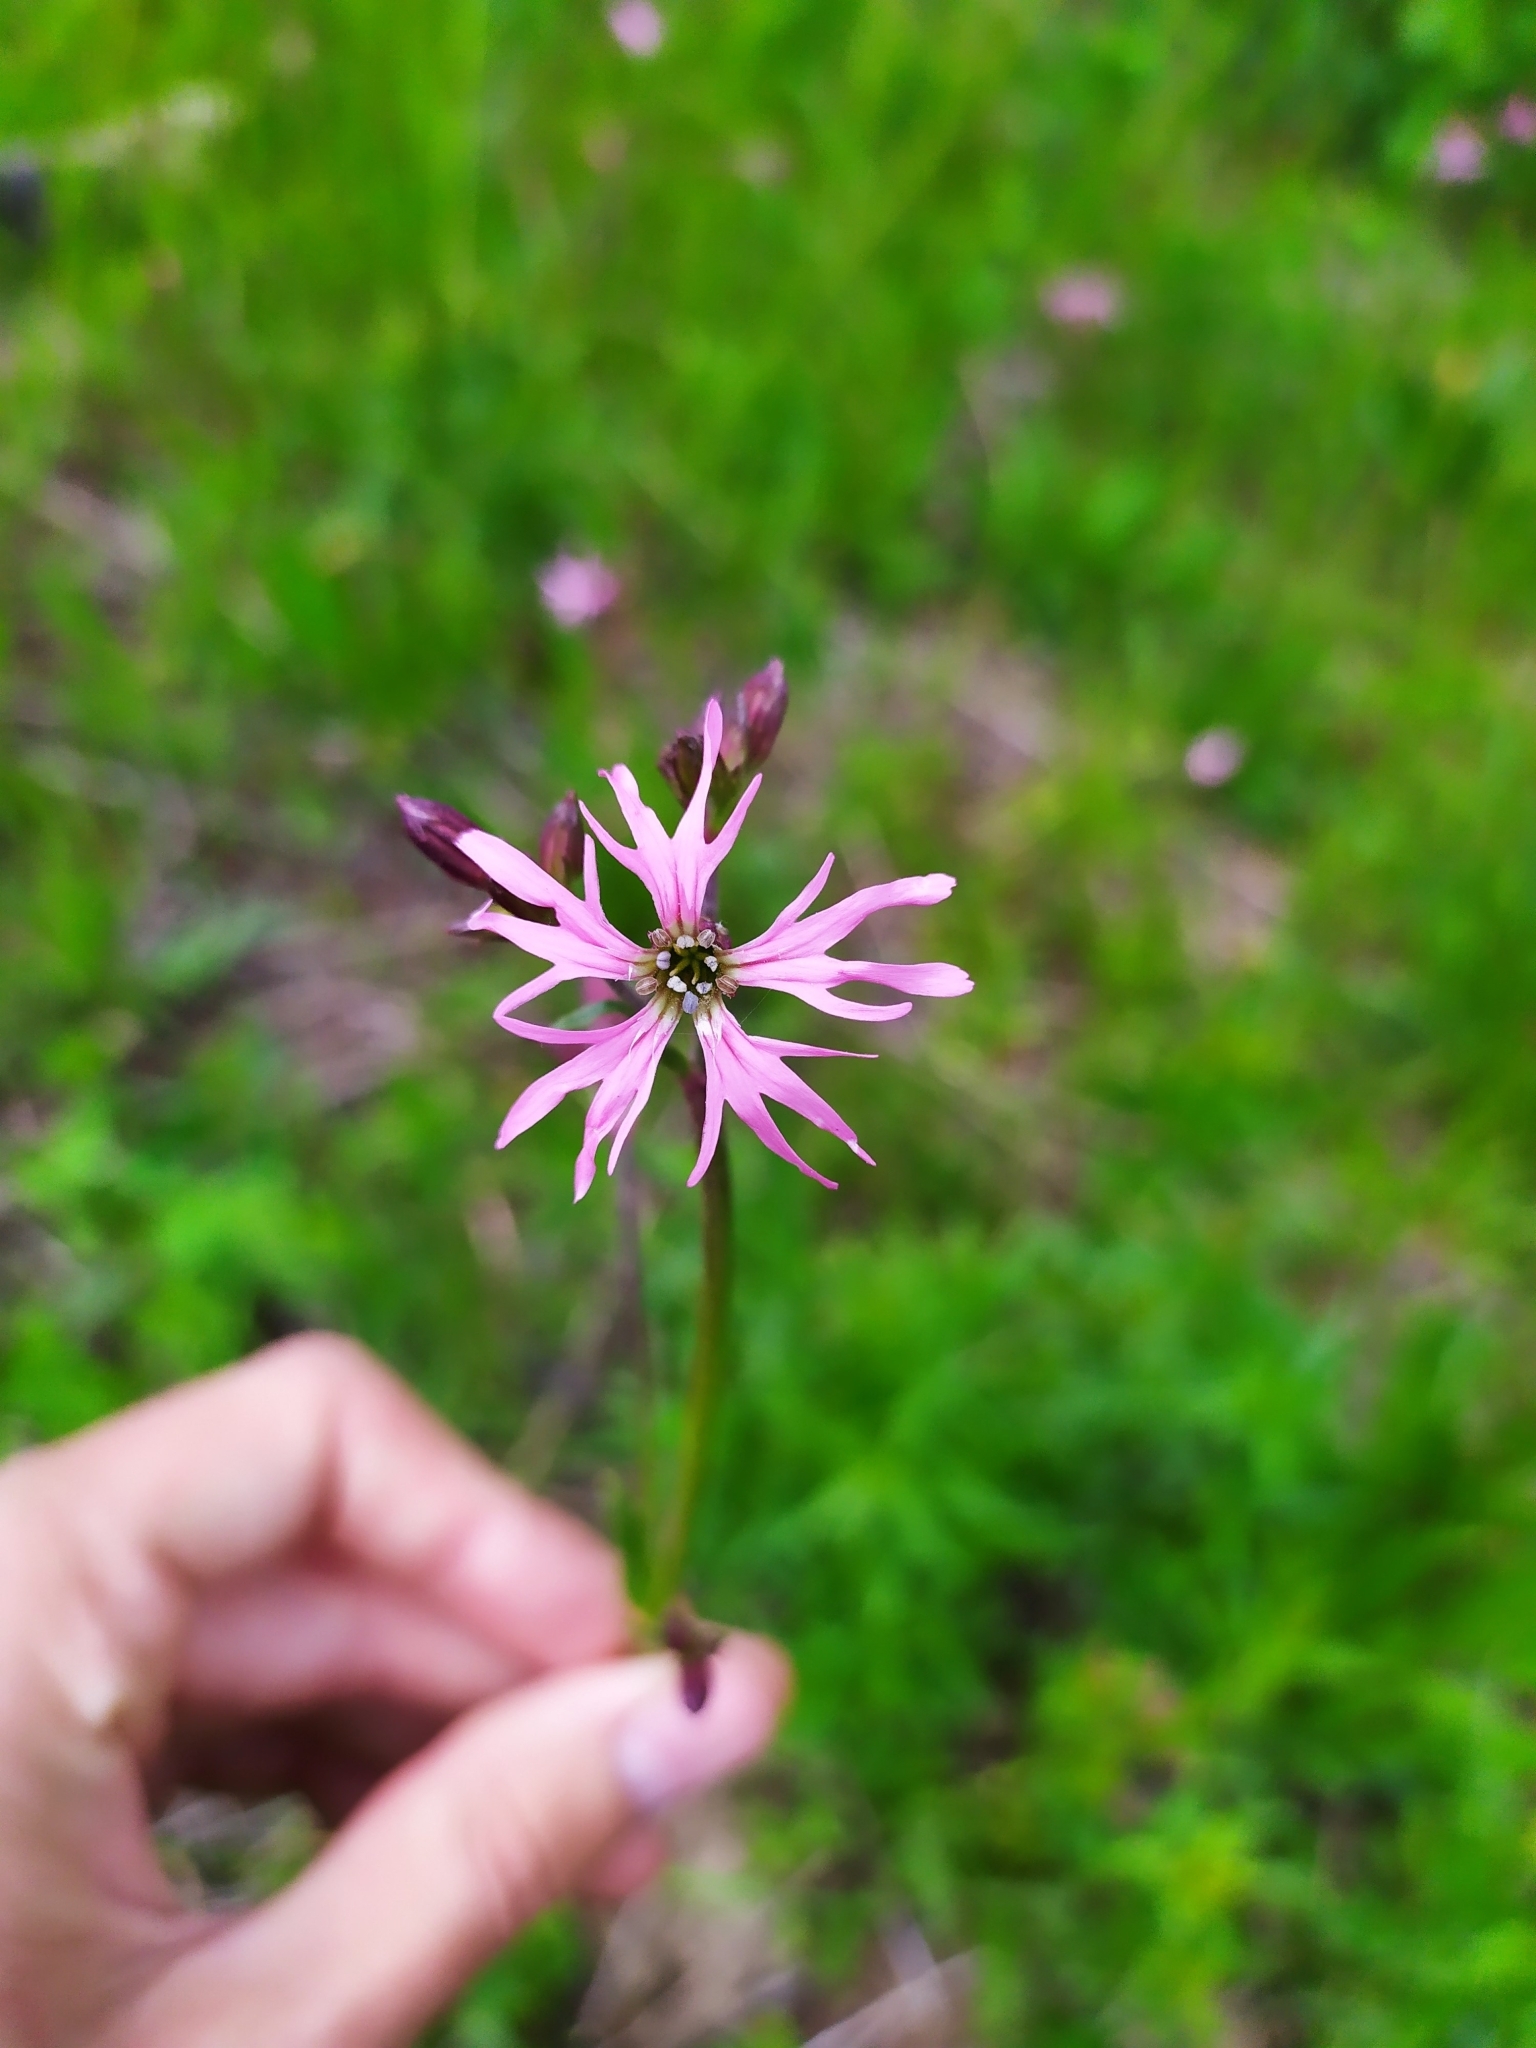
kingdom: Plantae
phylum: Tracheophyta
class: Magnoliopsida
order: Caryophyllales
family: Caryophyllaceae
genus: Silene
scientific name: Silene flos-cuculi
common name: Ragged-robin
